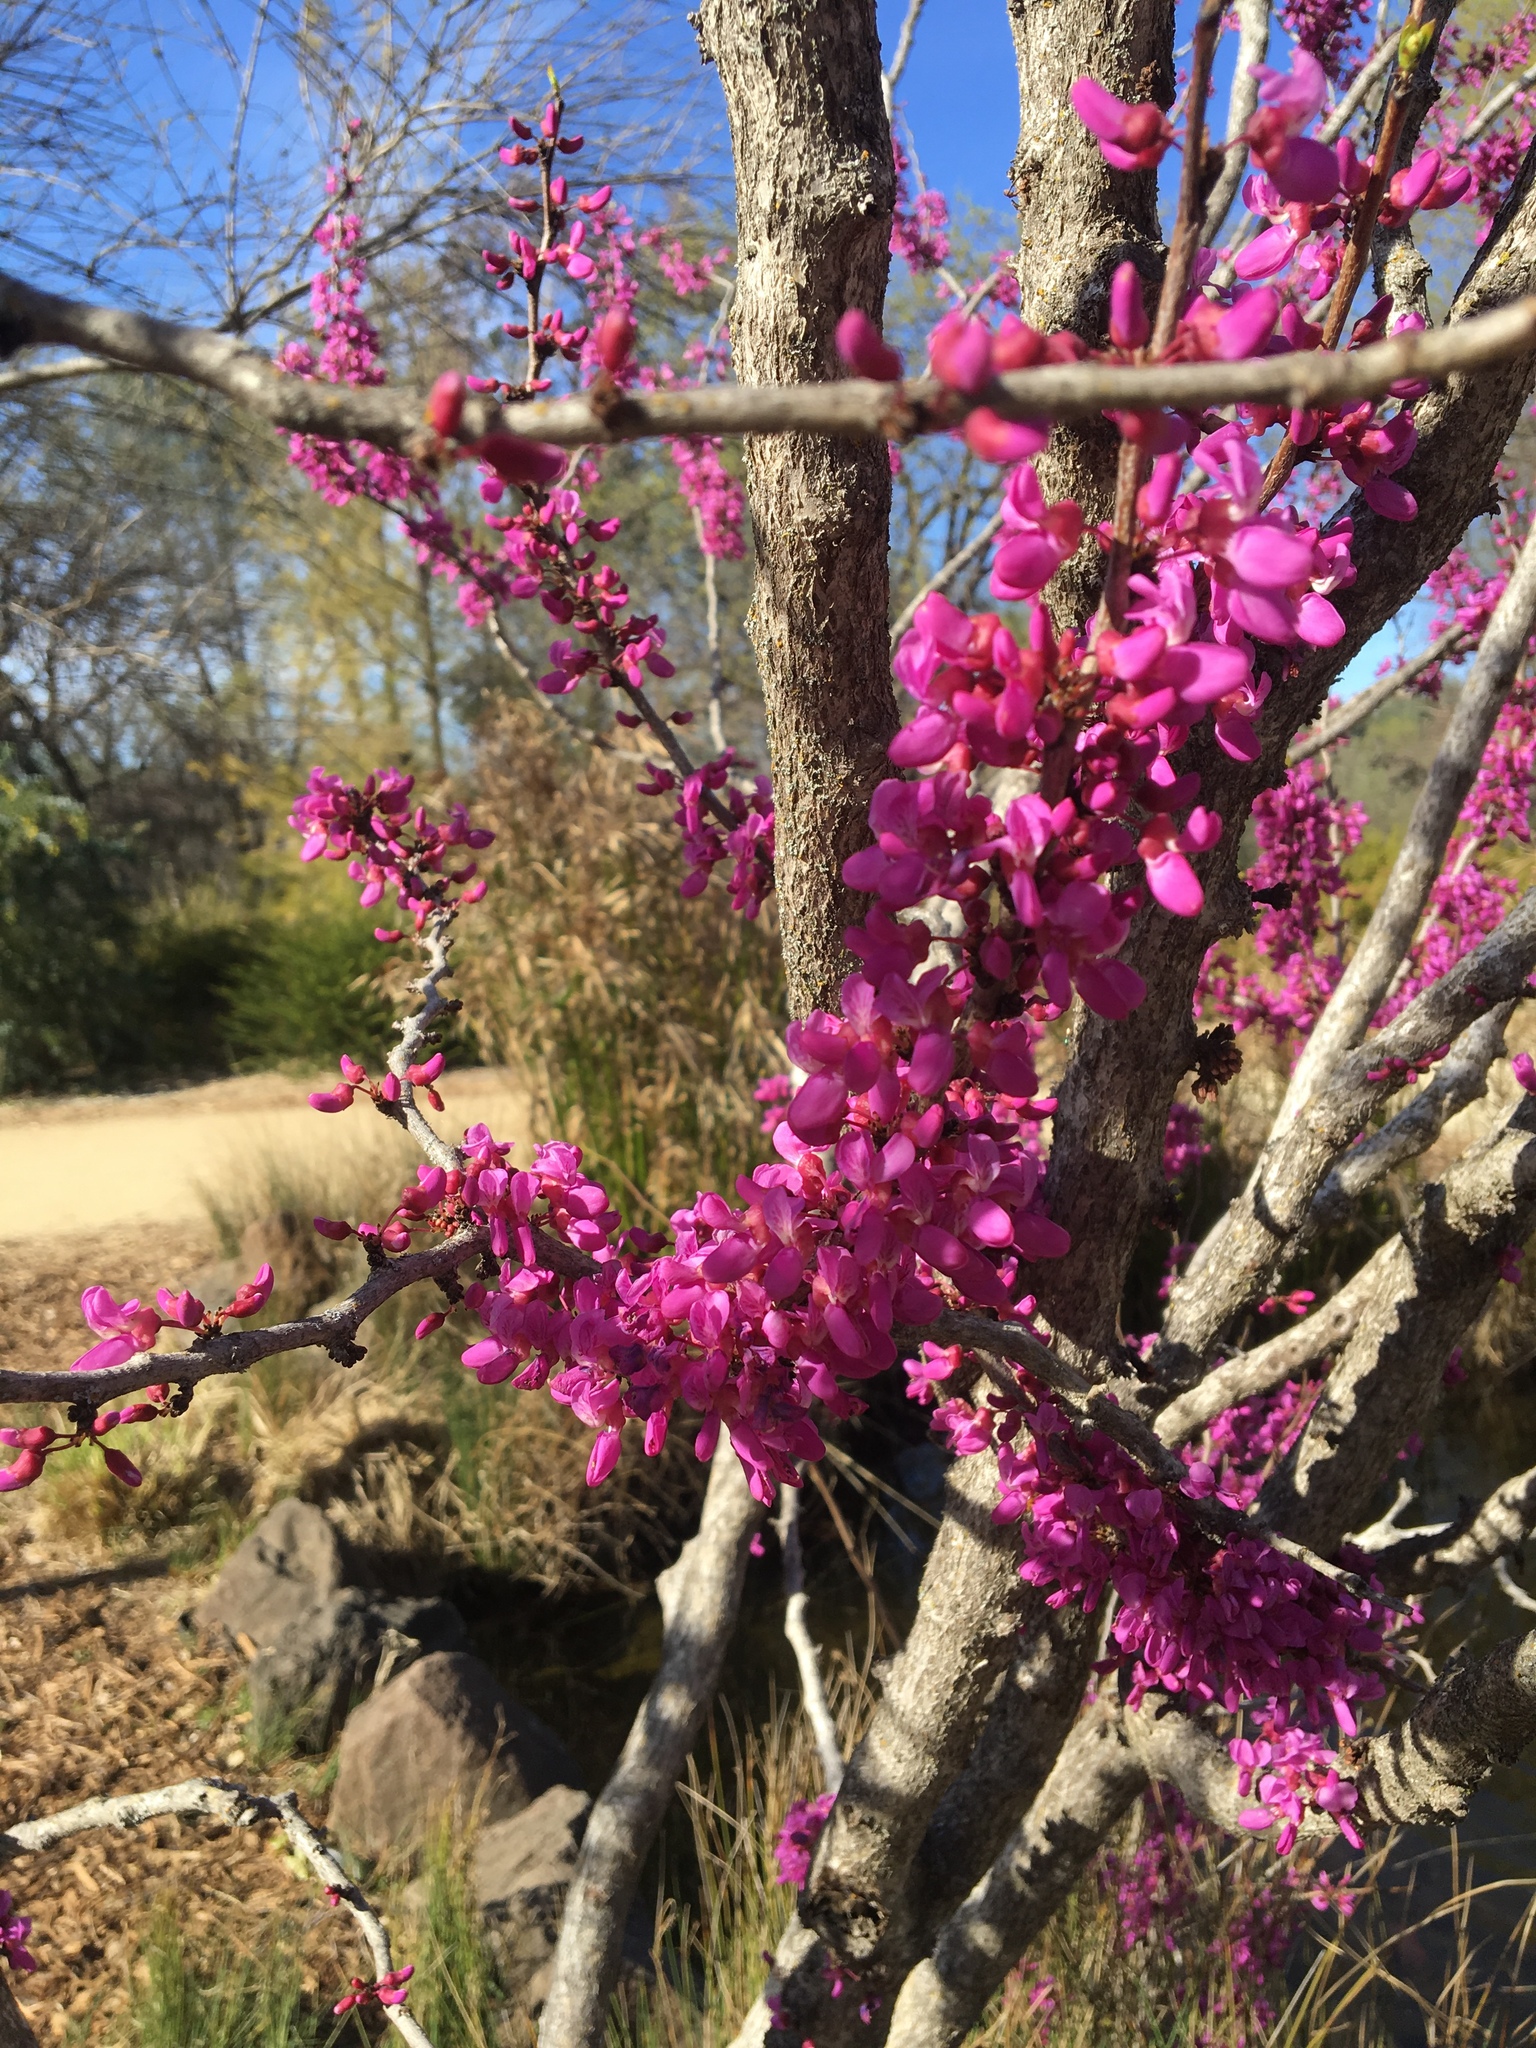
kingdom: Plantae
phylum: Tracheophyta
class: Magnoliopsida
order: Fabales
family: Fabaceae
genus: Cercis
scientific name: Cercis occidentalis
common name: California redbud
